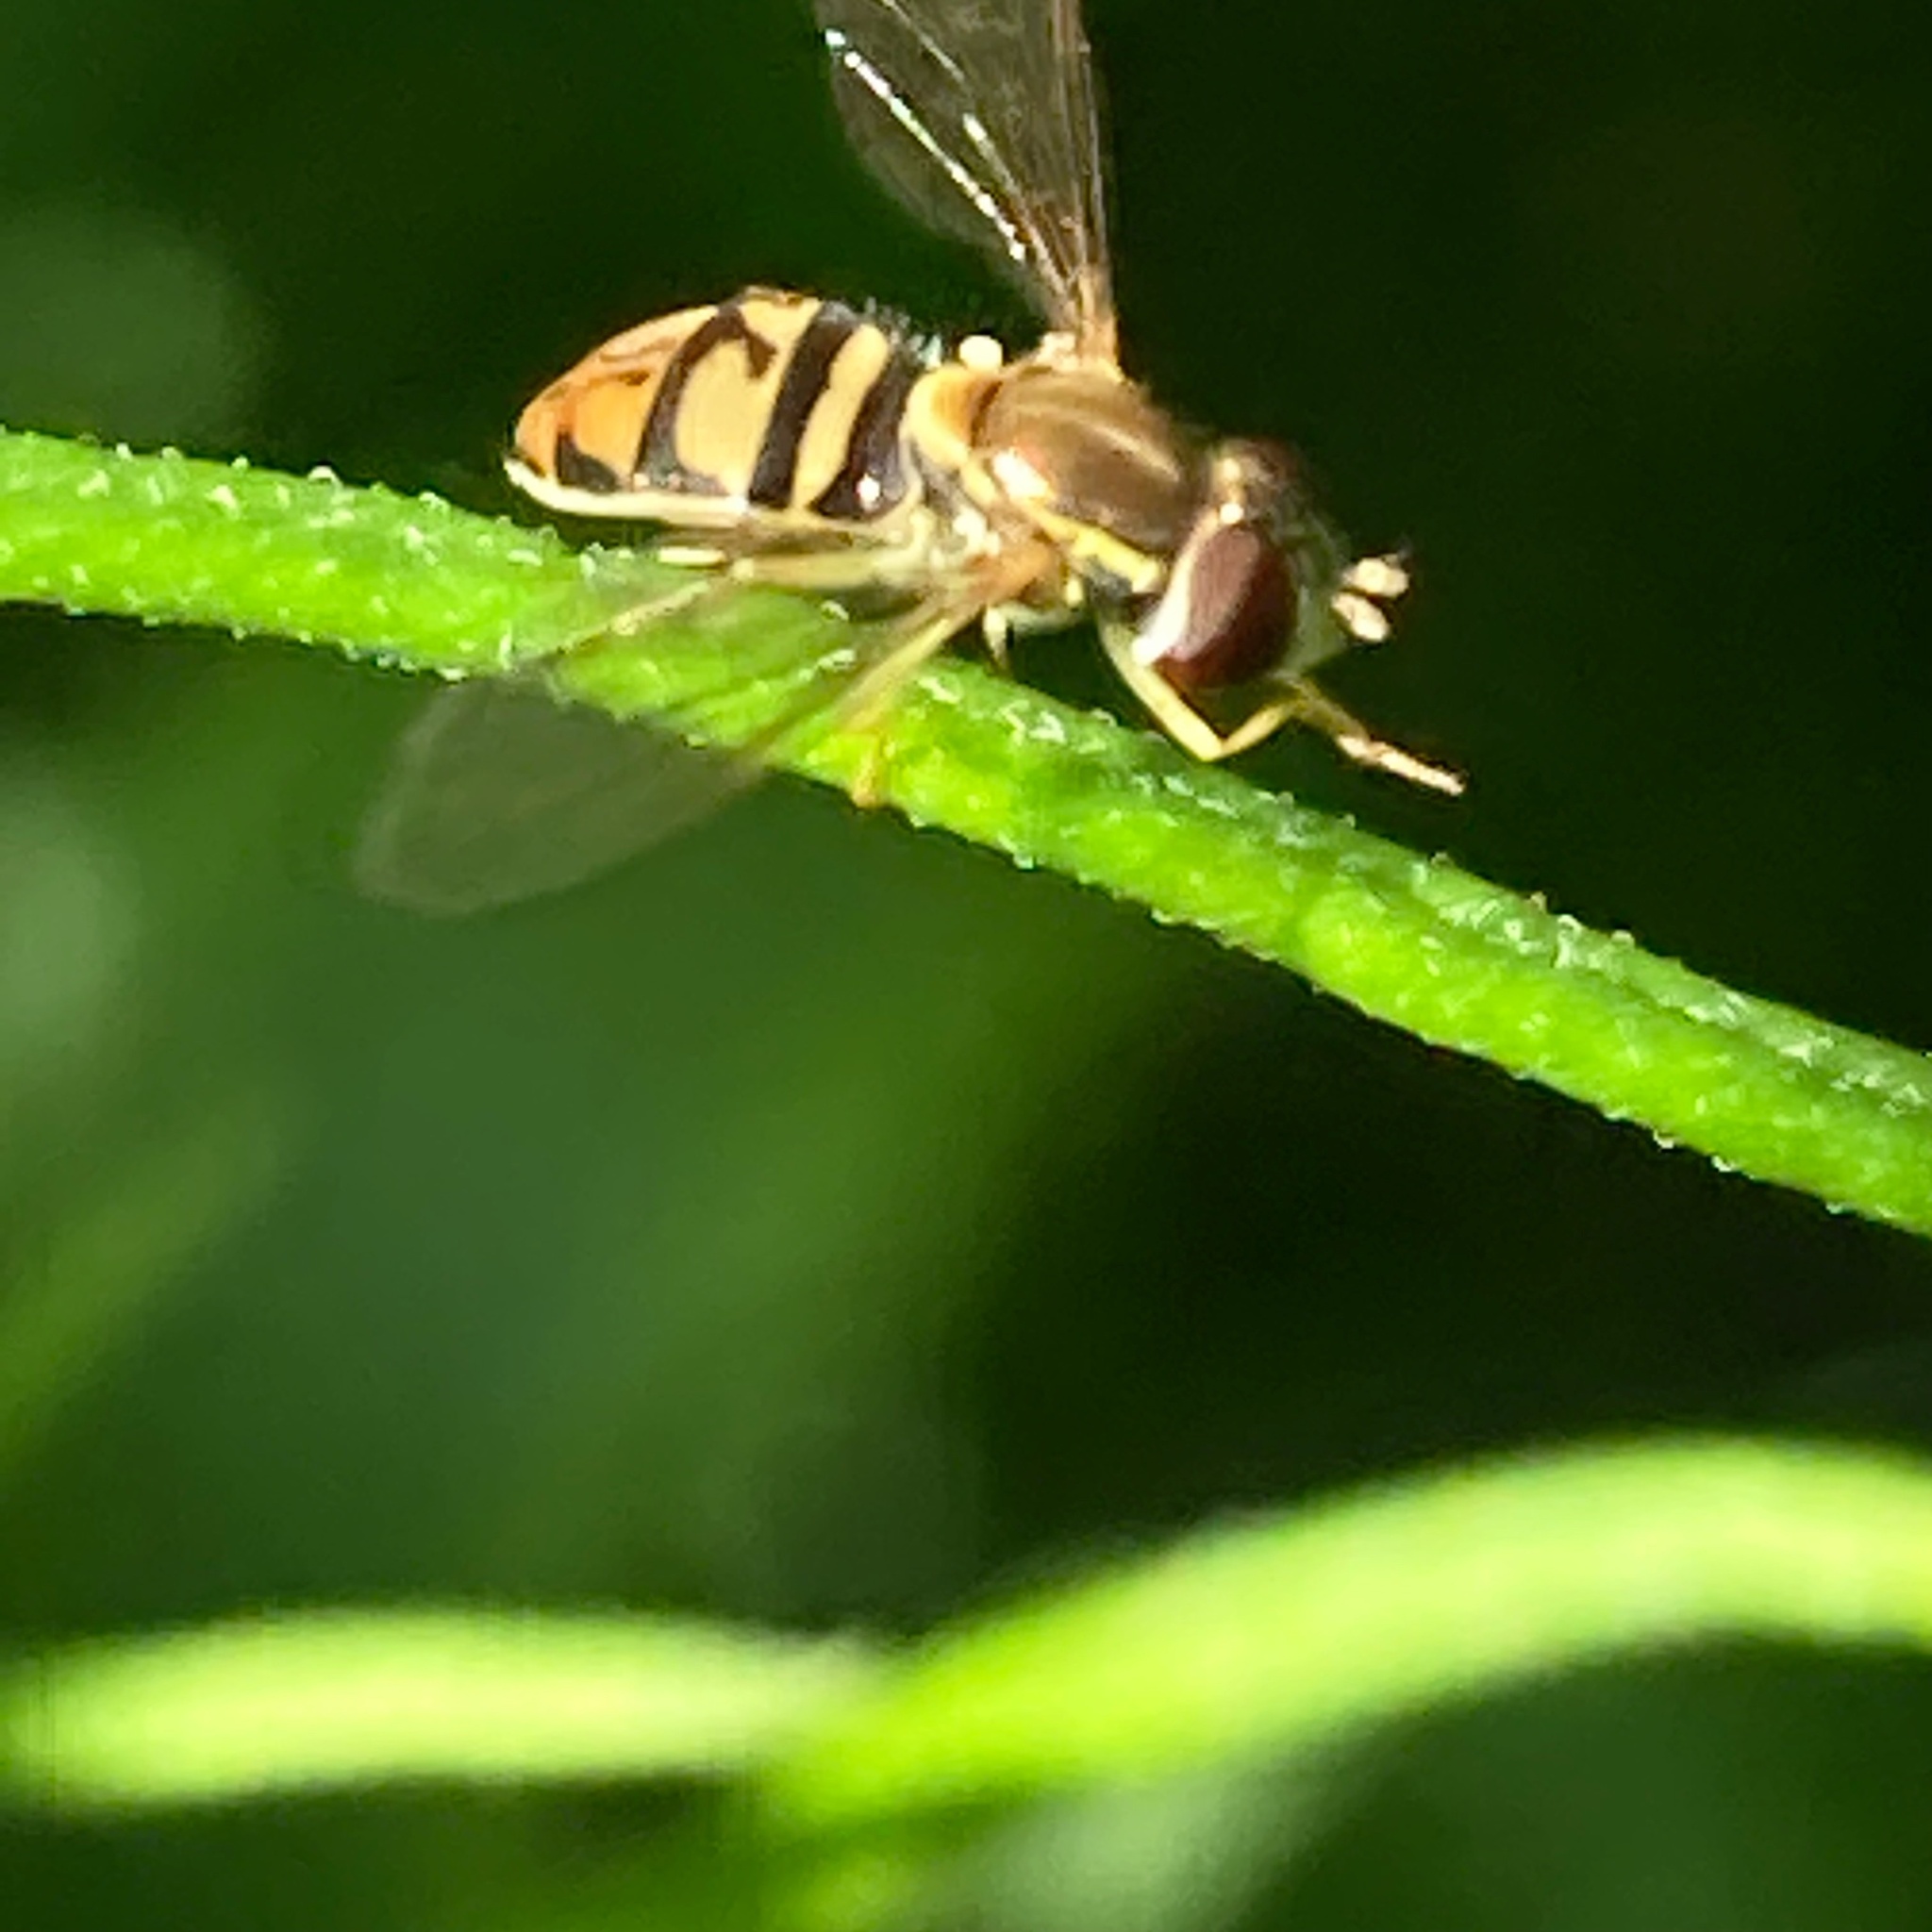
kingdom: Animalia
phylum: Arthropoda
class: Insecta
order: Diptera
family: Syrphidae
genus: Toxomerus
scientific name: Toxomerus marginatus
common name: Syrphid fly
